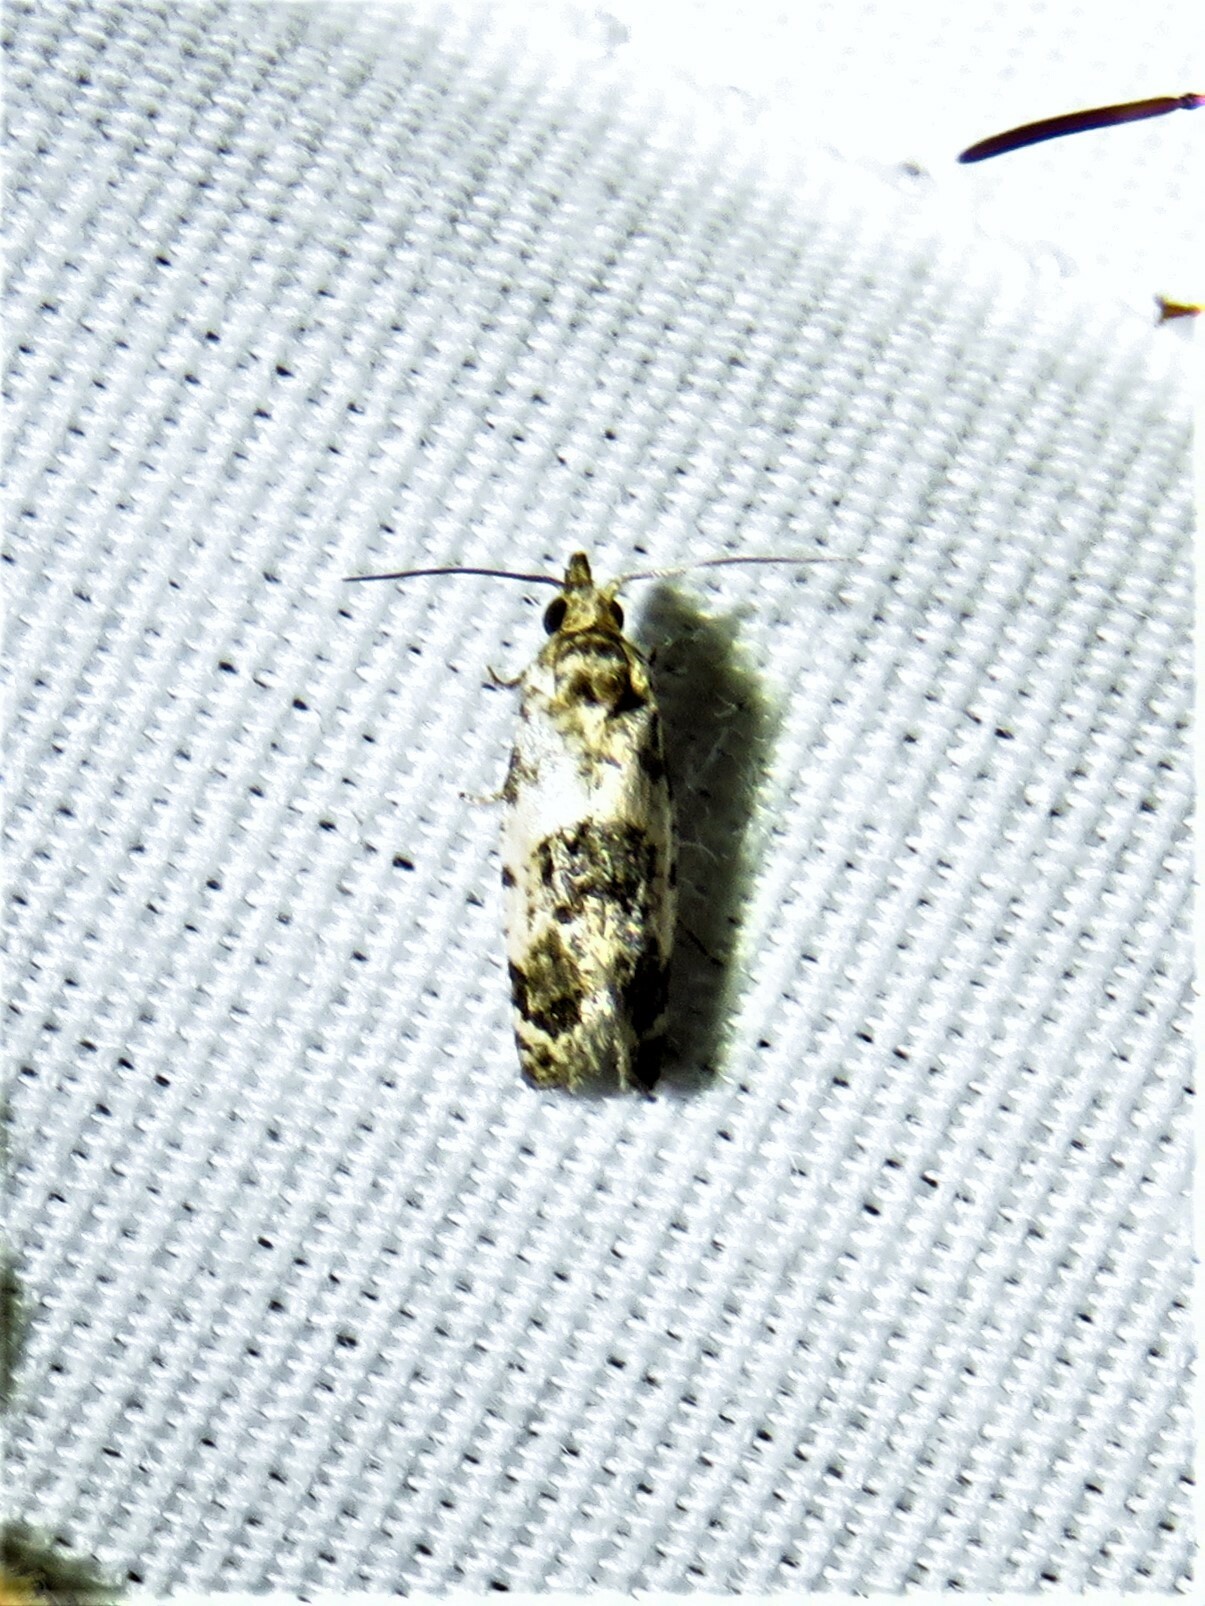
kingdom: Animalia
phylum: Arthropoda
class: Insecta
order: Lepidoptera
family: Tortricidae
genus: Rudenia
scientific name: Rudenia leguminana
